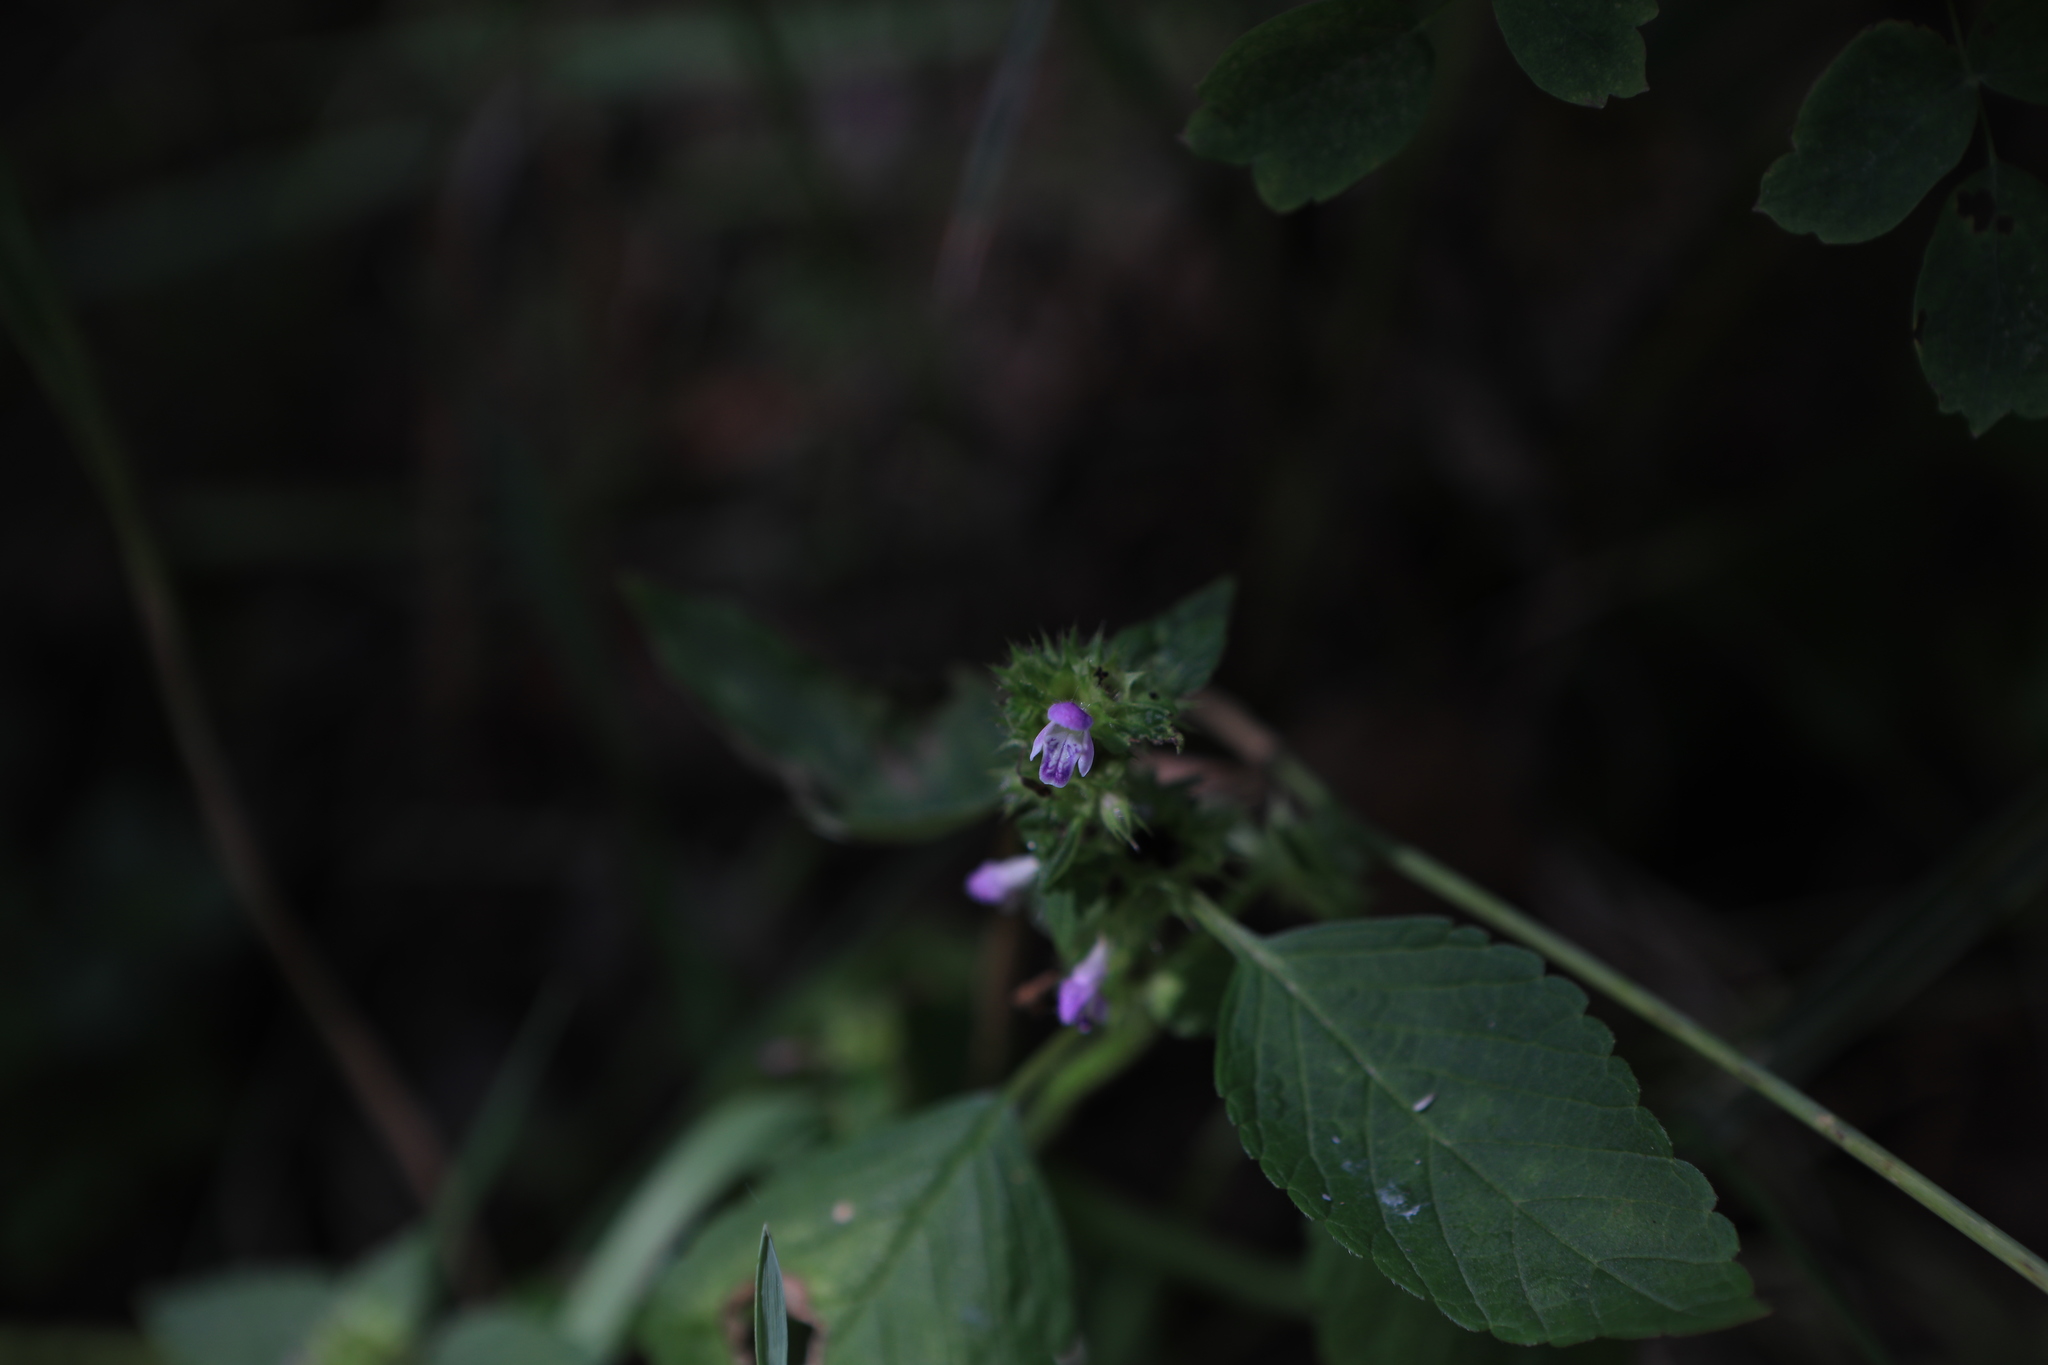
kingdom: Plantae
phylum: Tracheophyta
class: Magnoliopsida
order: Lamiales
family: Lamiaceae
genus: Galeopsis
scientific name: Galeopsis bifida
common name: Bifid hemp-nettle
